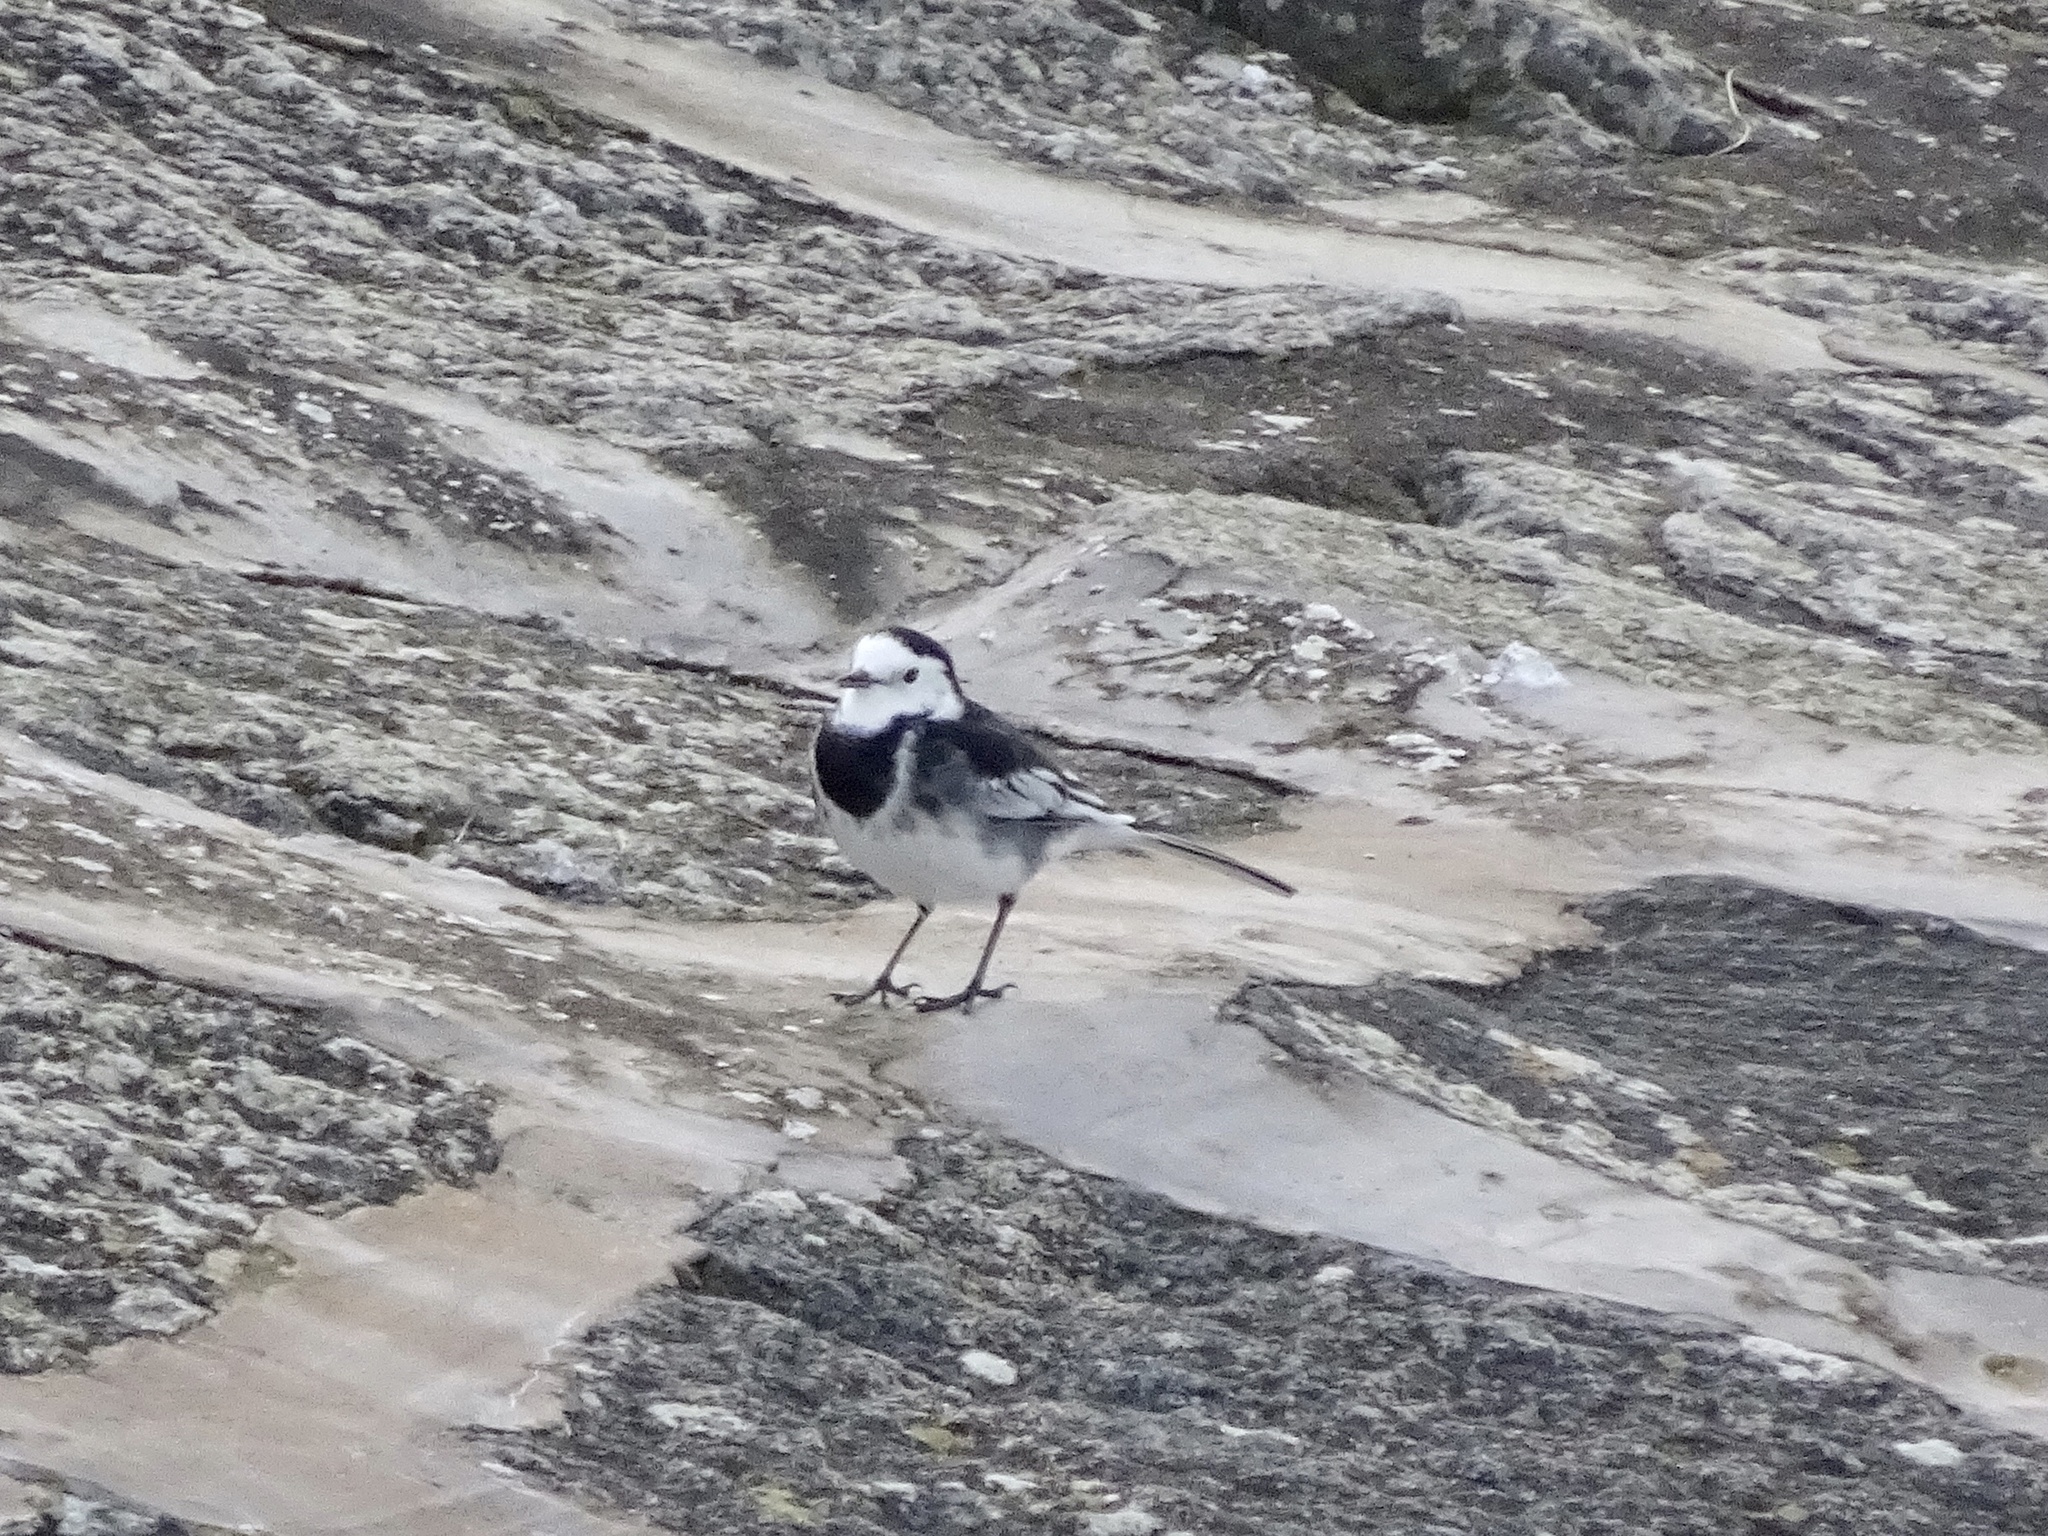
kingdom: Animalia
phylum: Chordata
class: Aves
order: Passeriformes
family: Motacillidae
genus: Motacilla
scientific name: Motacilla alba
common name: White wagtail
